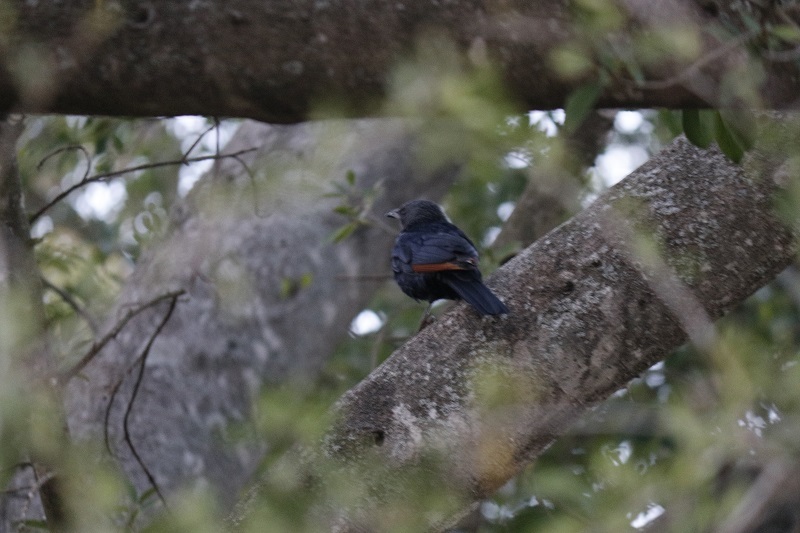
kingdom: Animalia
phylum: Chordata
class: Aves
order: Passeriformes
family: Sturnidae
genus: Onychognathus
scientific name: Onychognathus morio
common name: Red-winged starling
